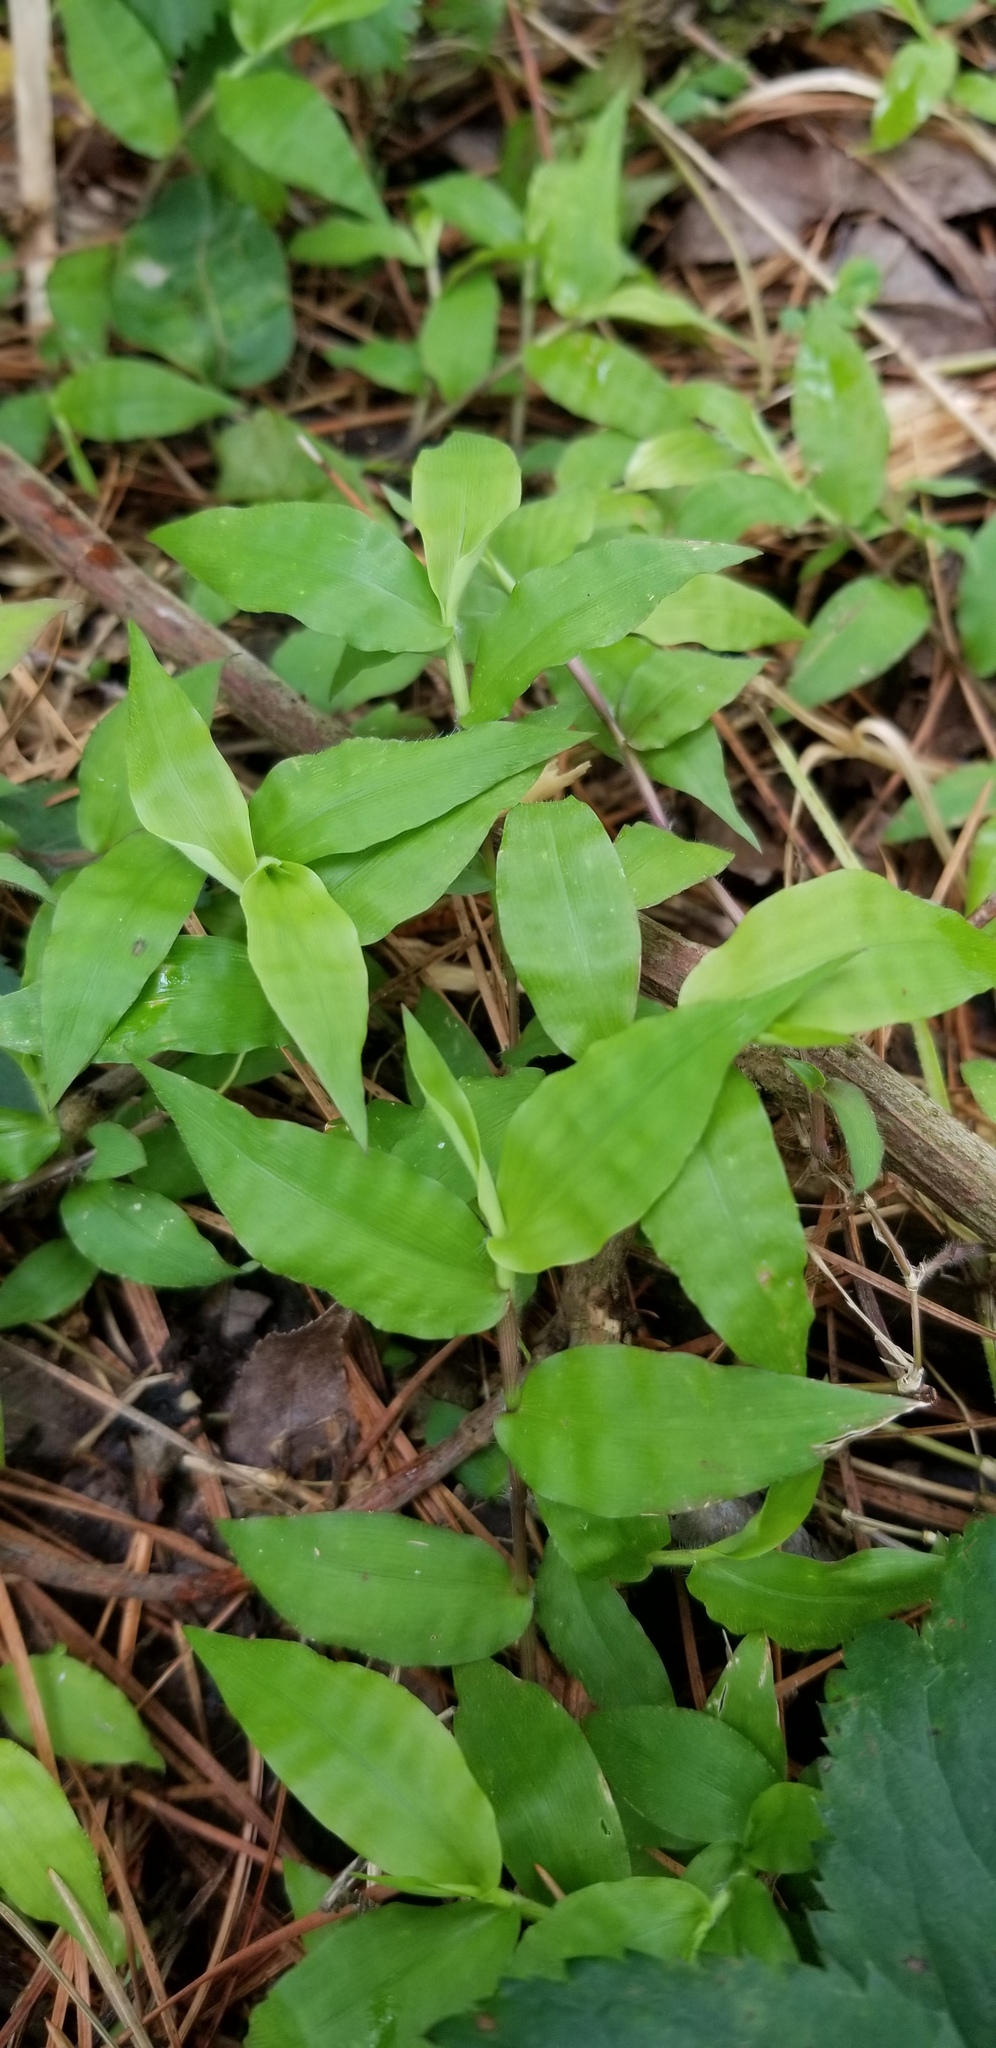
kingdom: Plantae
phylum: Tracheophyta
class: Liliopsida
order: Poales
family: Poaceae
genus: Oplismenus
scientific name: Oplismenus compositus
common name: Running mountain grass
